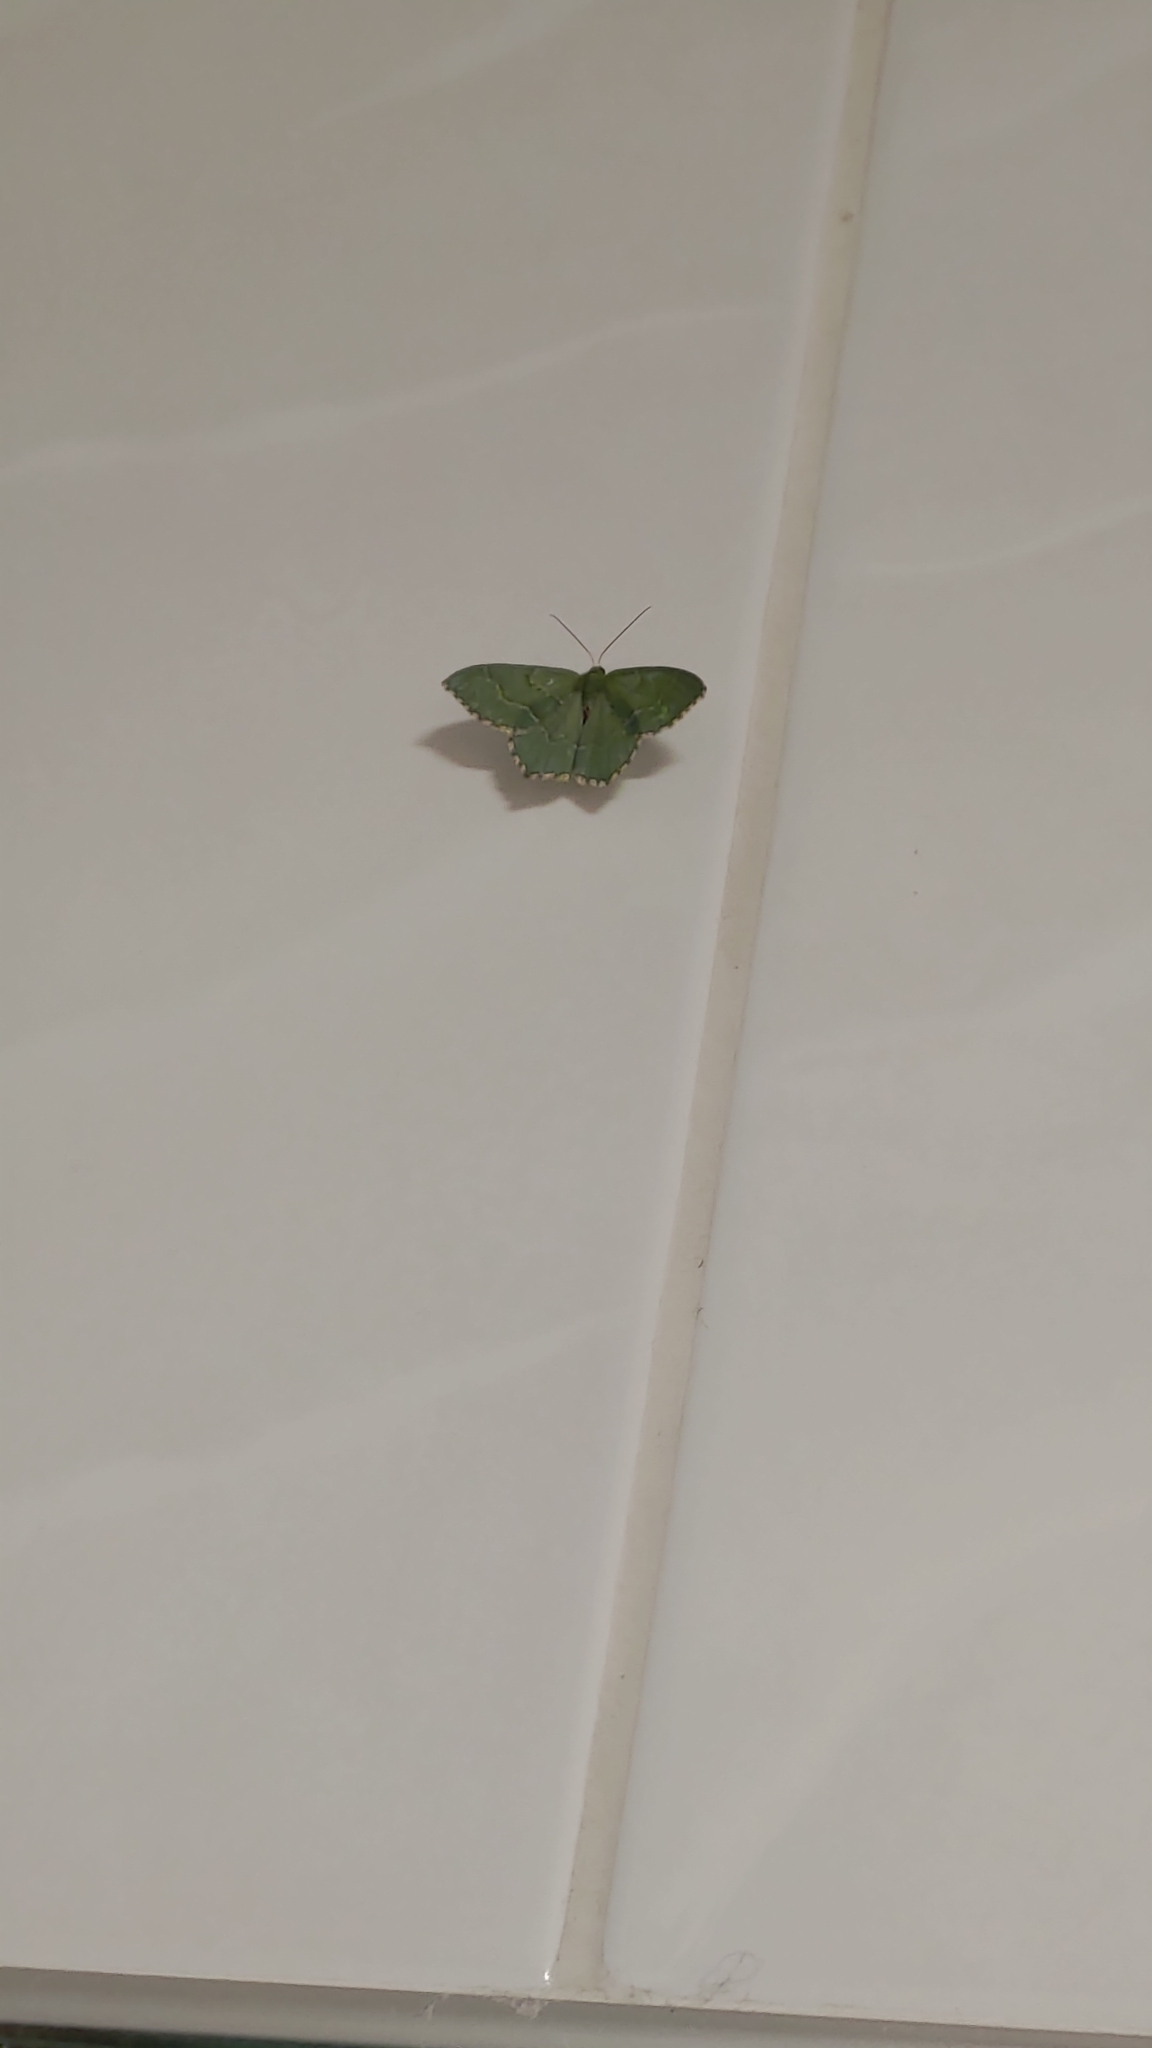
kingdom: Animalia
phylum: Arthropoda
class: Insecta
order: Lepidoptera
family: Geometridae
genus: Hemithea
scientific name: Hemithea aestivaria
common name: Common emerald
